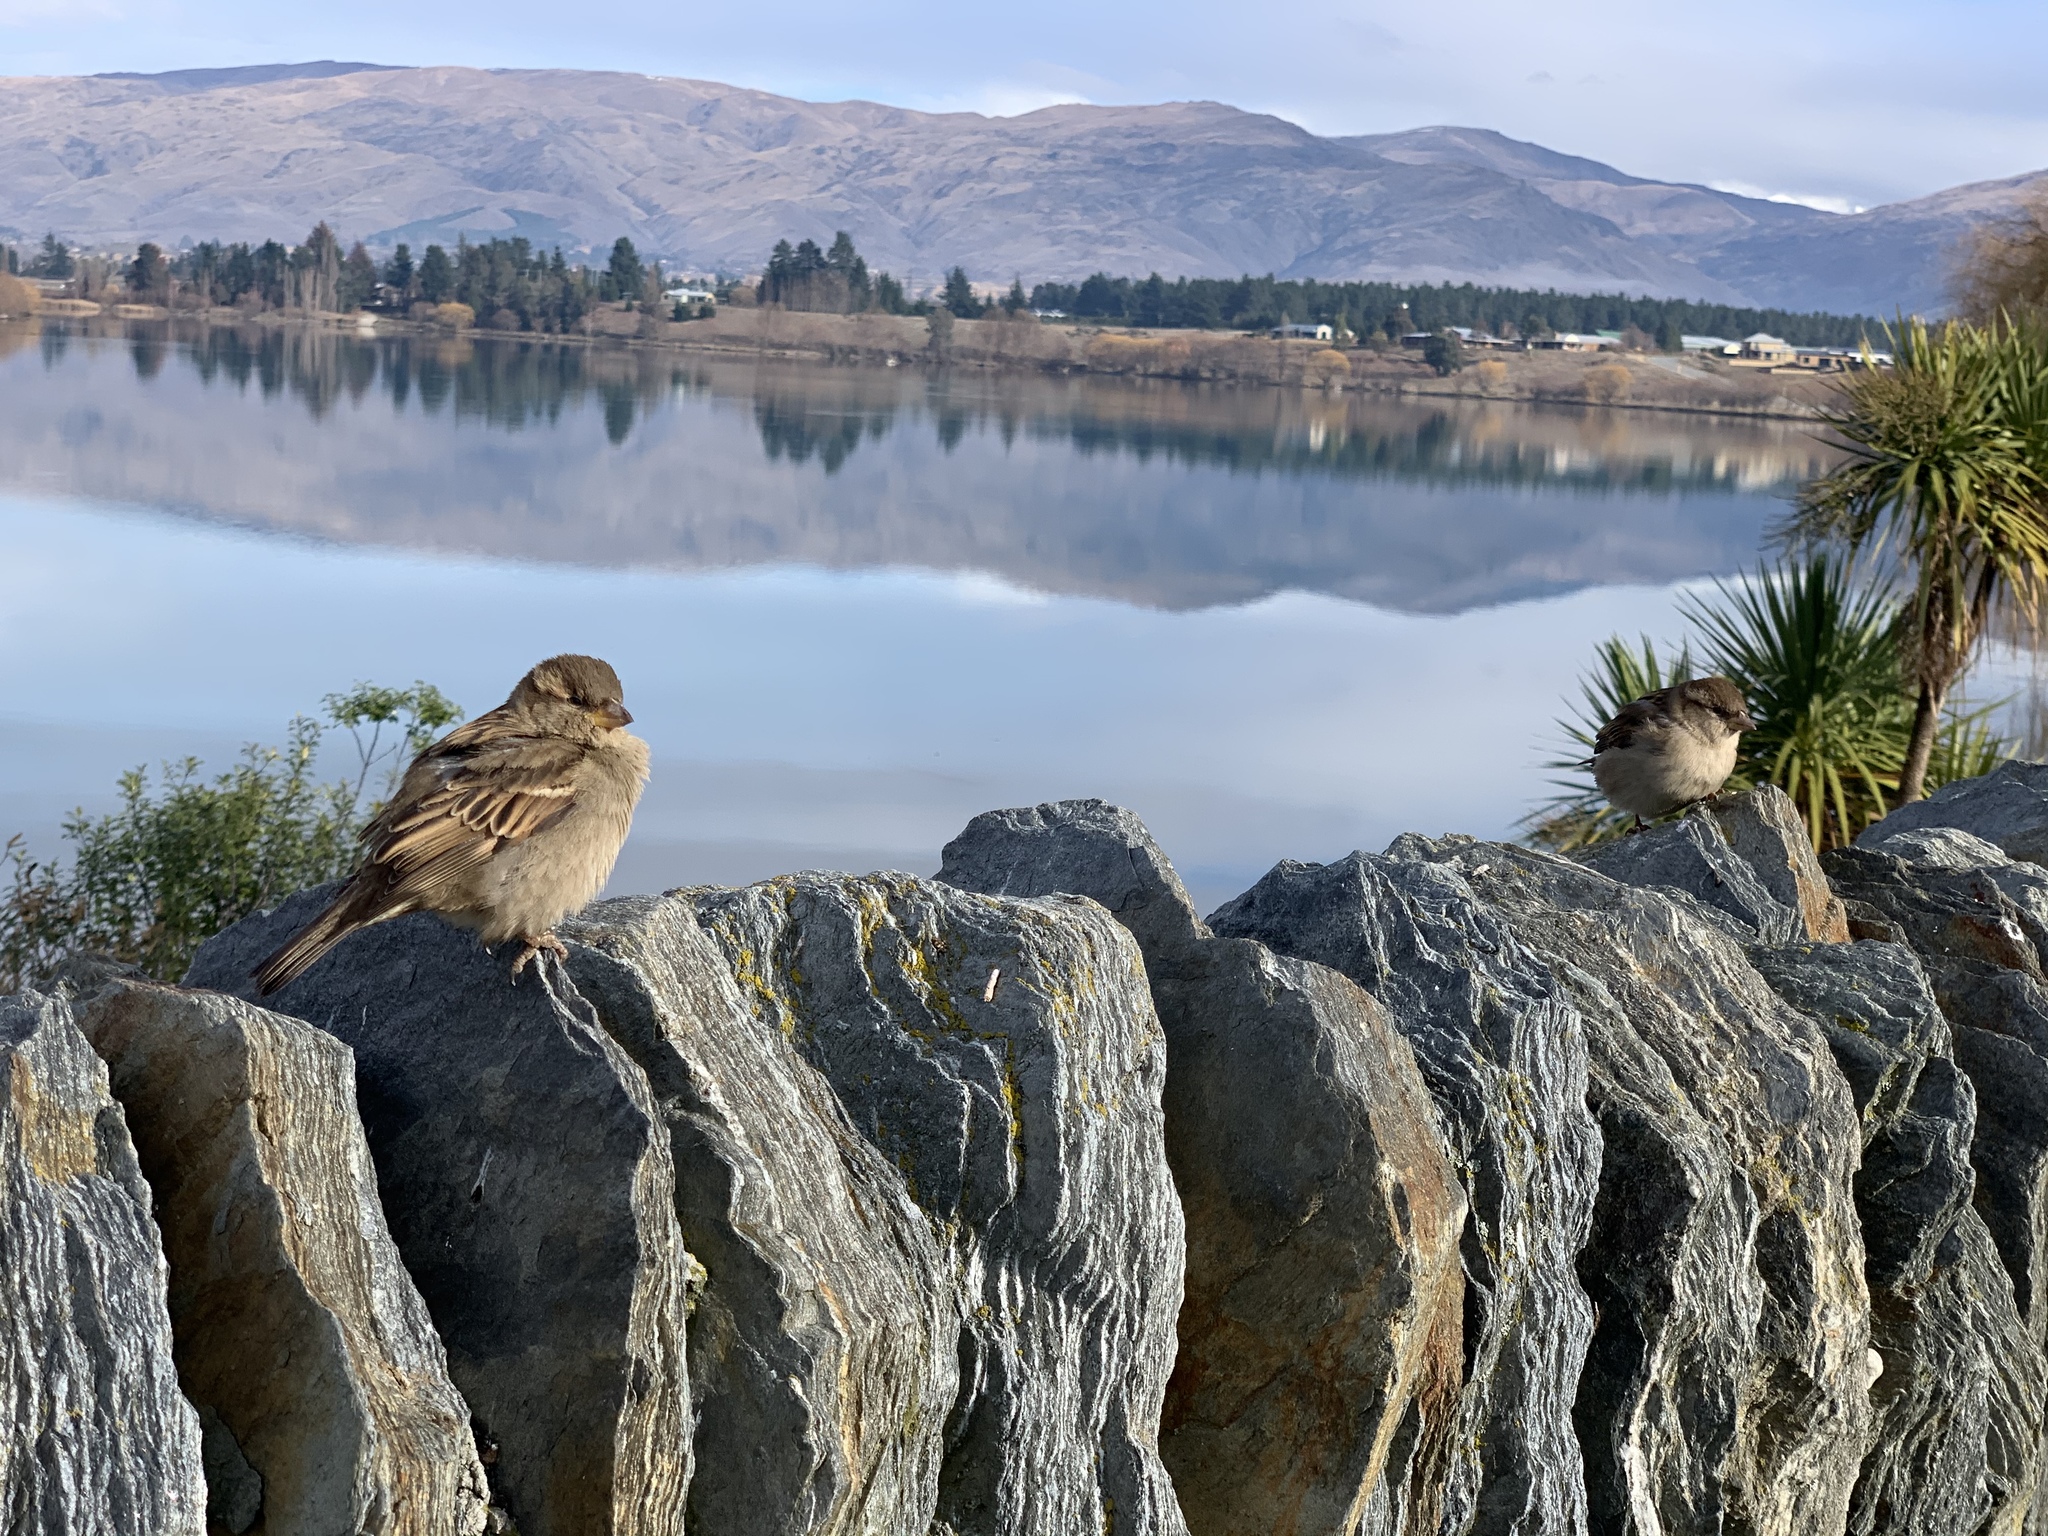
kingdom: Animalia
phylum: Chordata
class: Aves
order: Passeriformes
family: Passeridae
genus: Passer
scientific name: Passer domesticus
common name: House sparrow
